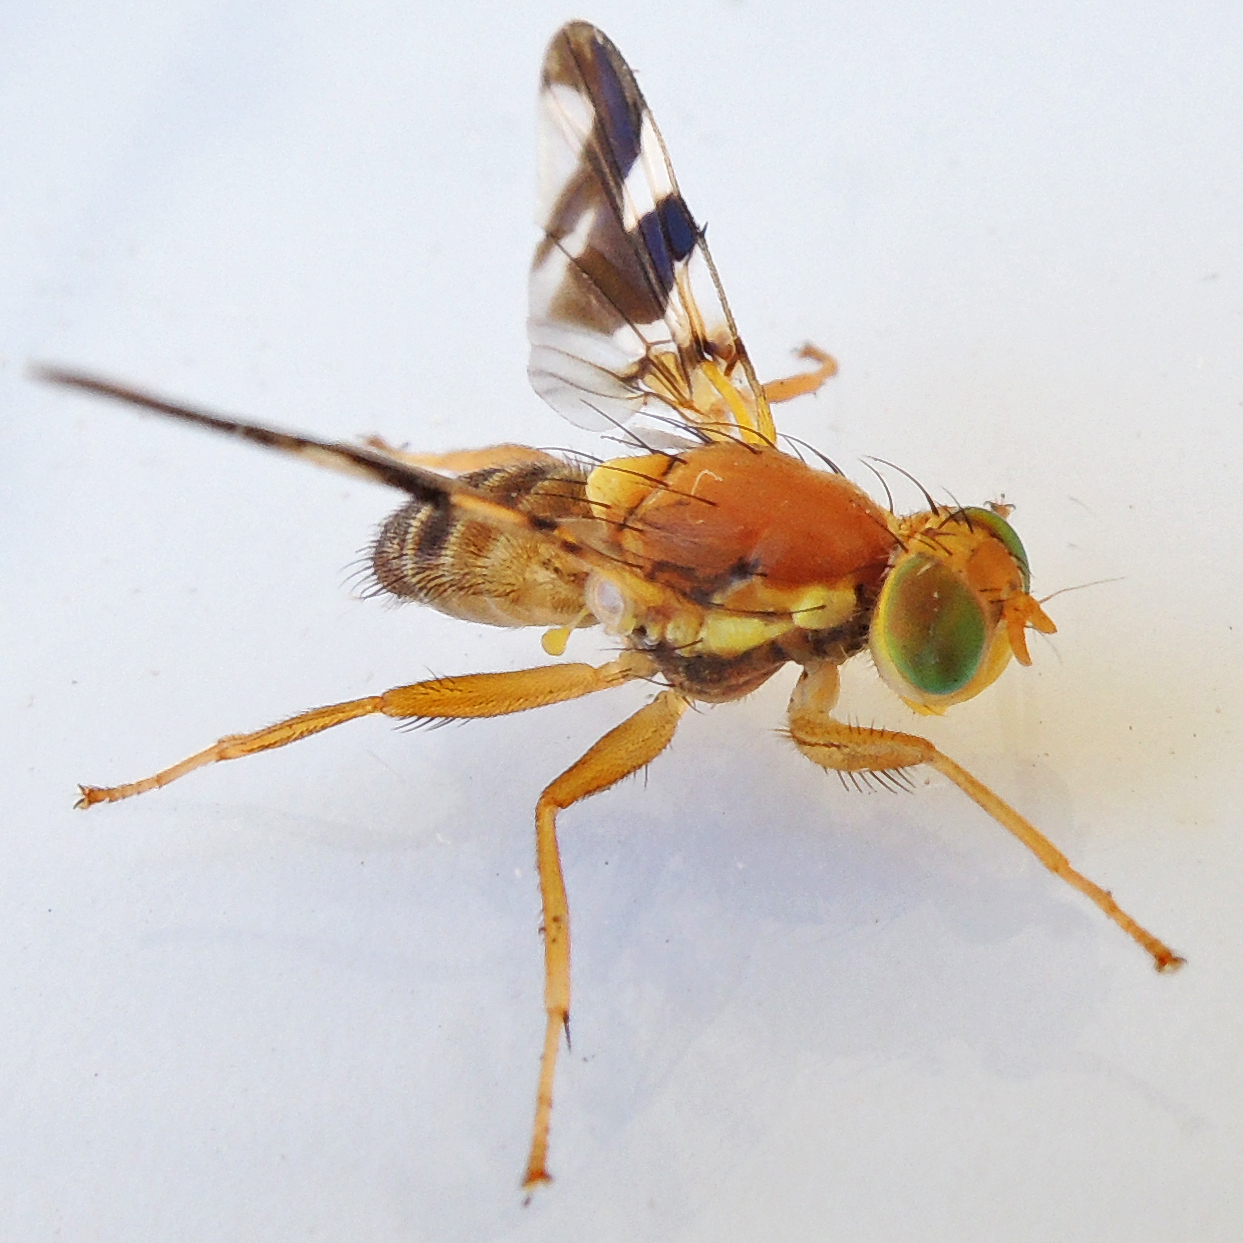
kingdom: Animalia
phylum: Arthropoda
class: Insecta
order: Diptera
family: Tephritidae
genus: Rhagoletis
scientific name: Rhagoletis suavis
